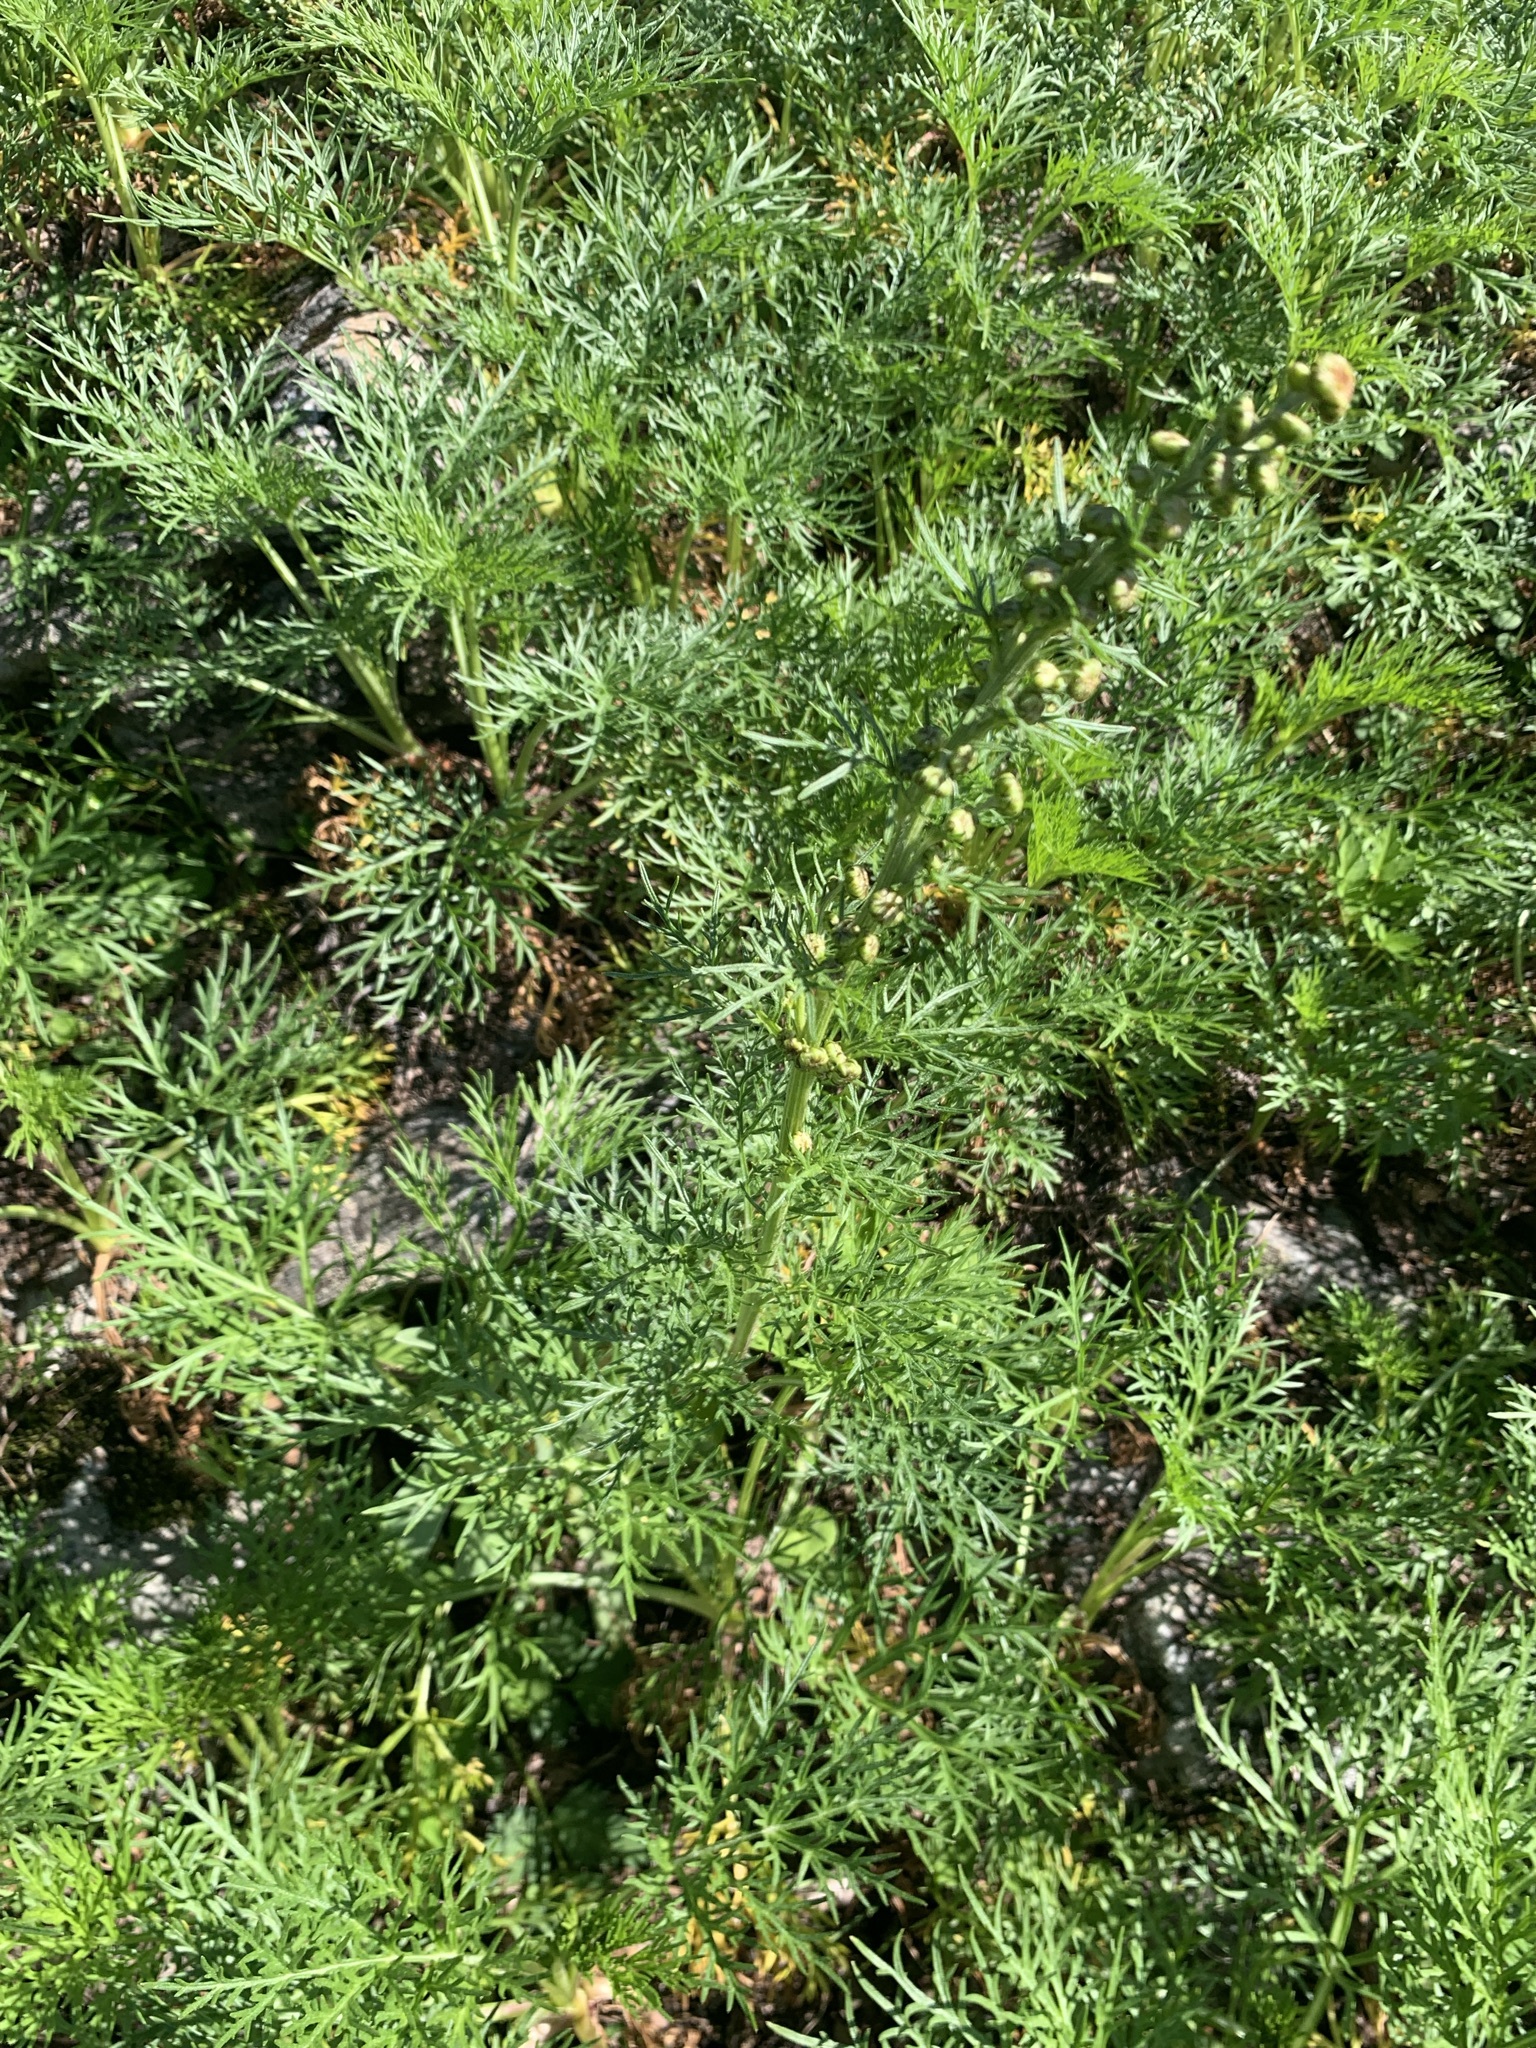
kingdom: Plantae
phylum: Tracheophyta
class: Magnoliopsida
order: Asterales
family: Asteraceae
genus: Artemisia
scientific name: Artemisia sinanensis
